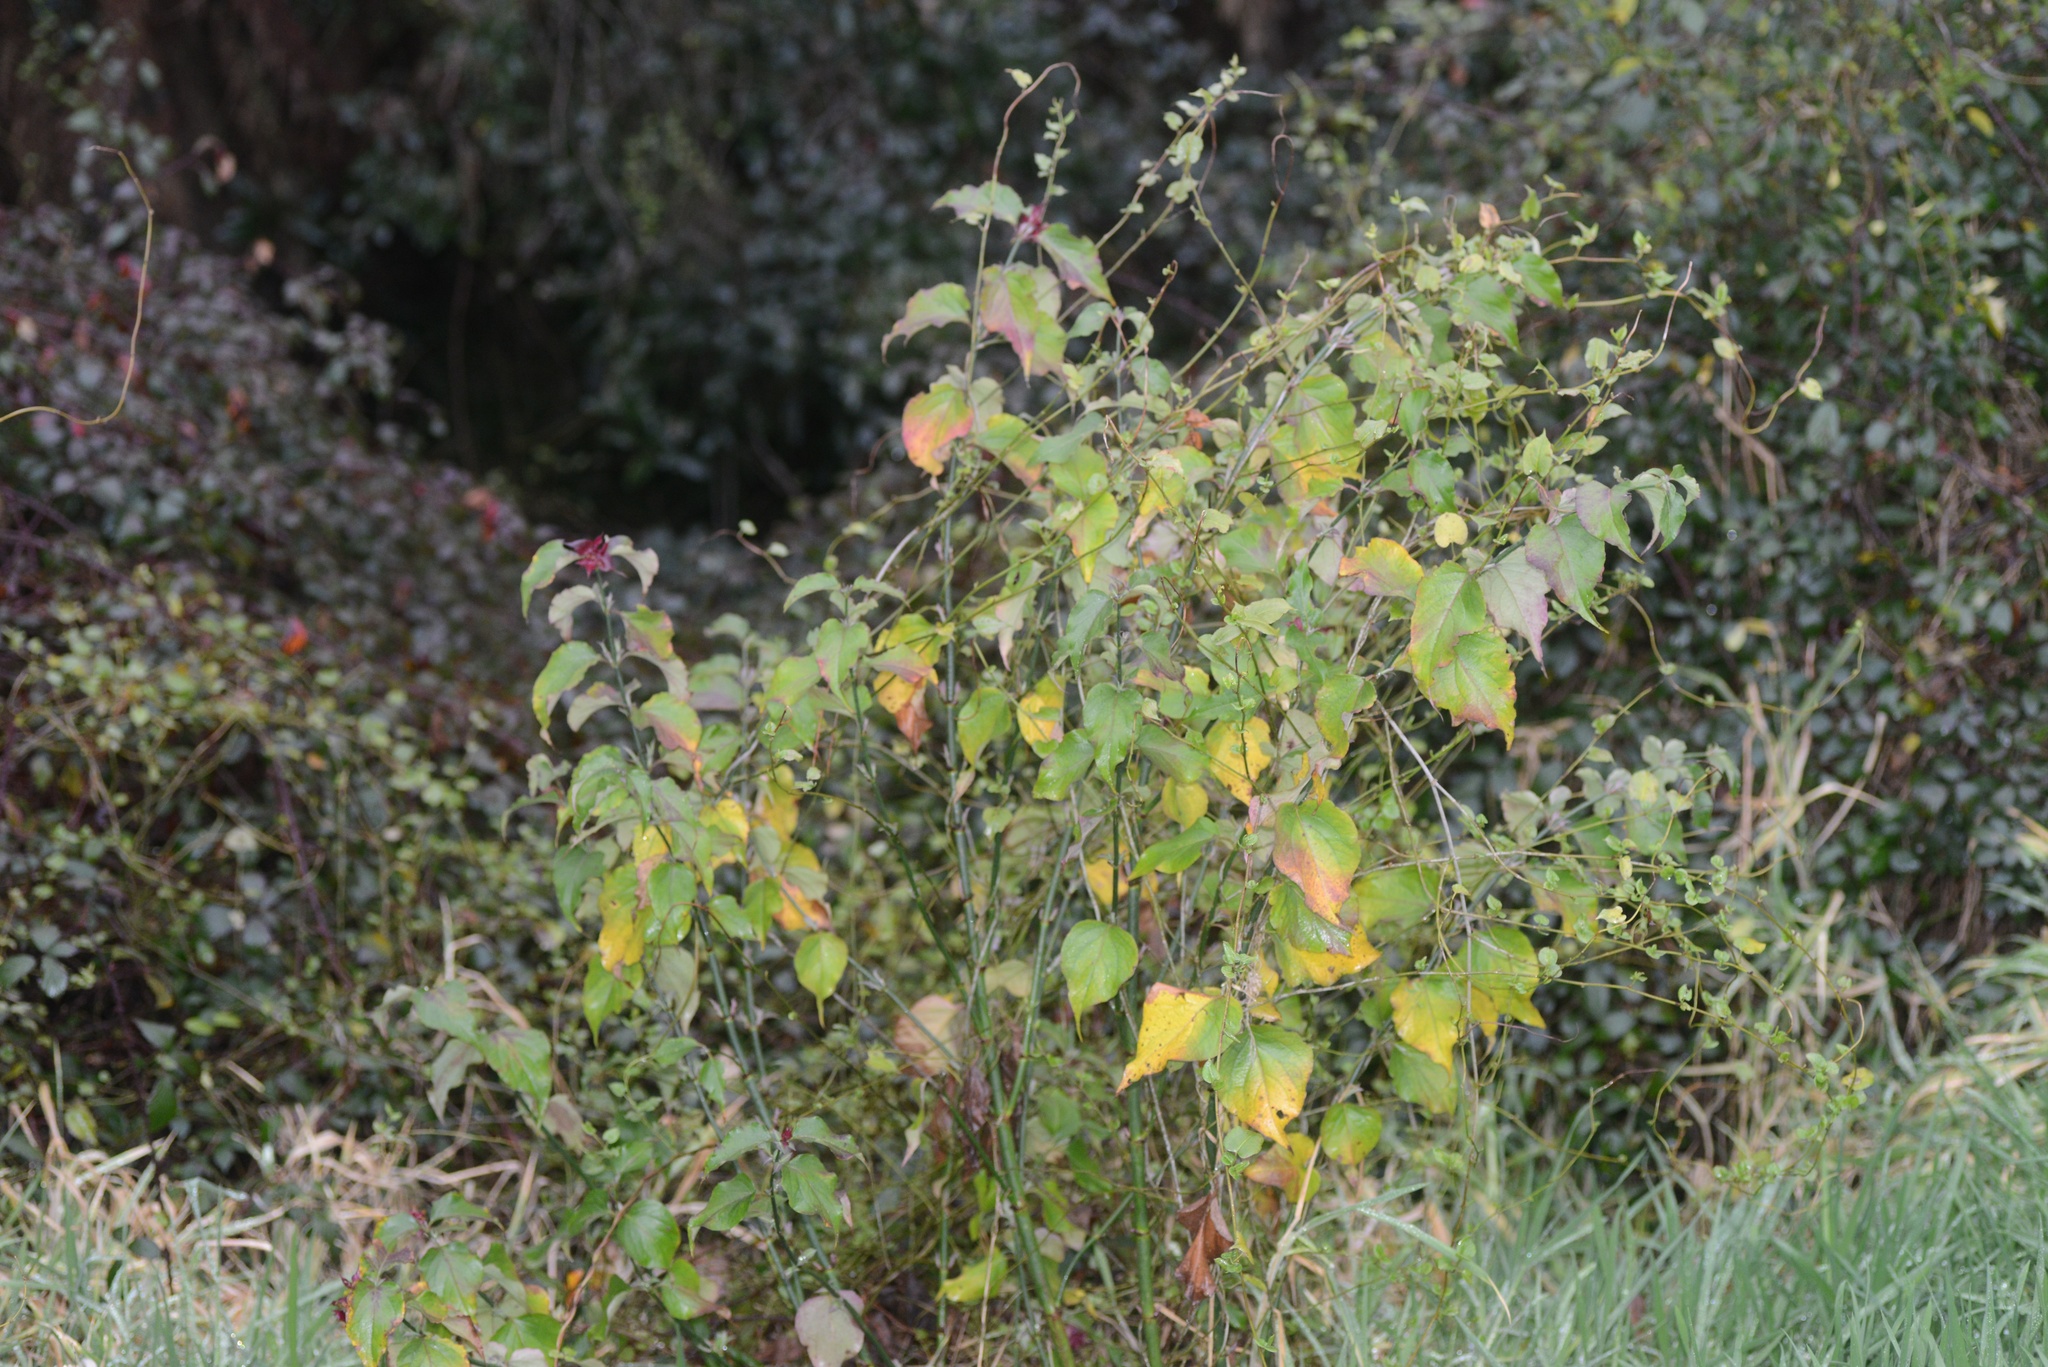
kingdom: Plantae
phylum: Tracheophyta
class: Magnoliopsida
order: Dipsacales
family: Caprifoliaceae
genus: Leycesteria
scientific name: Leycesteria formosa
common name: Himalayan honeysuckle
